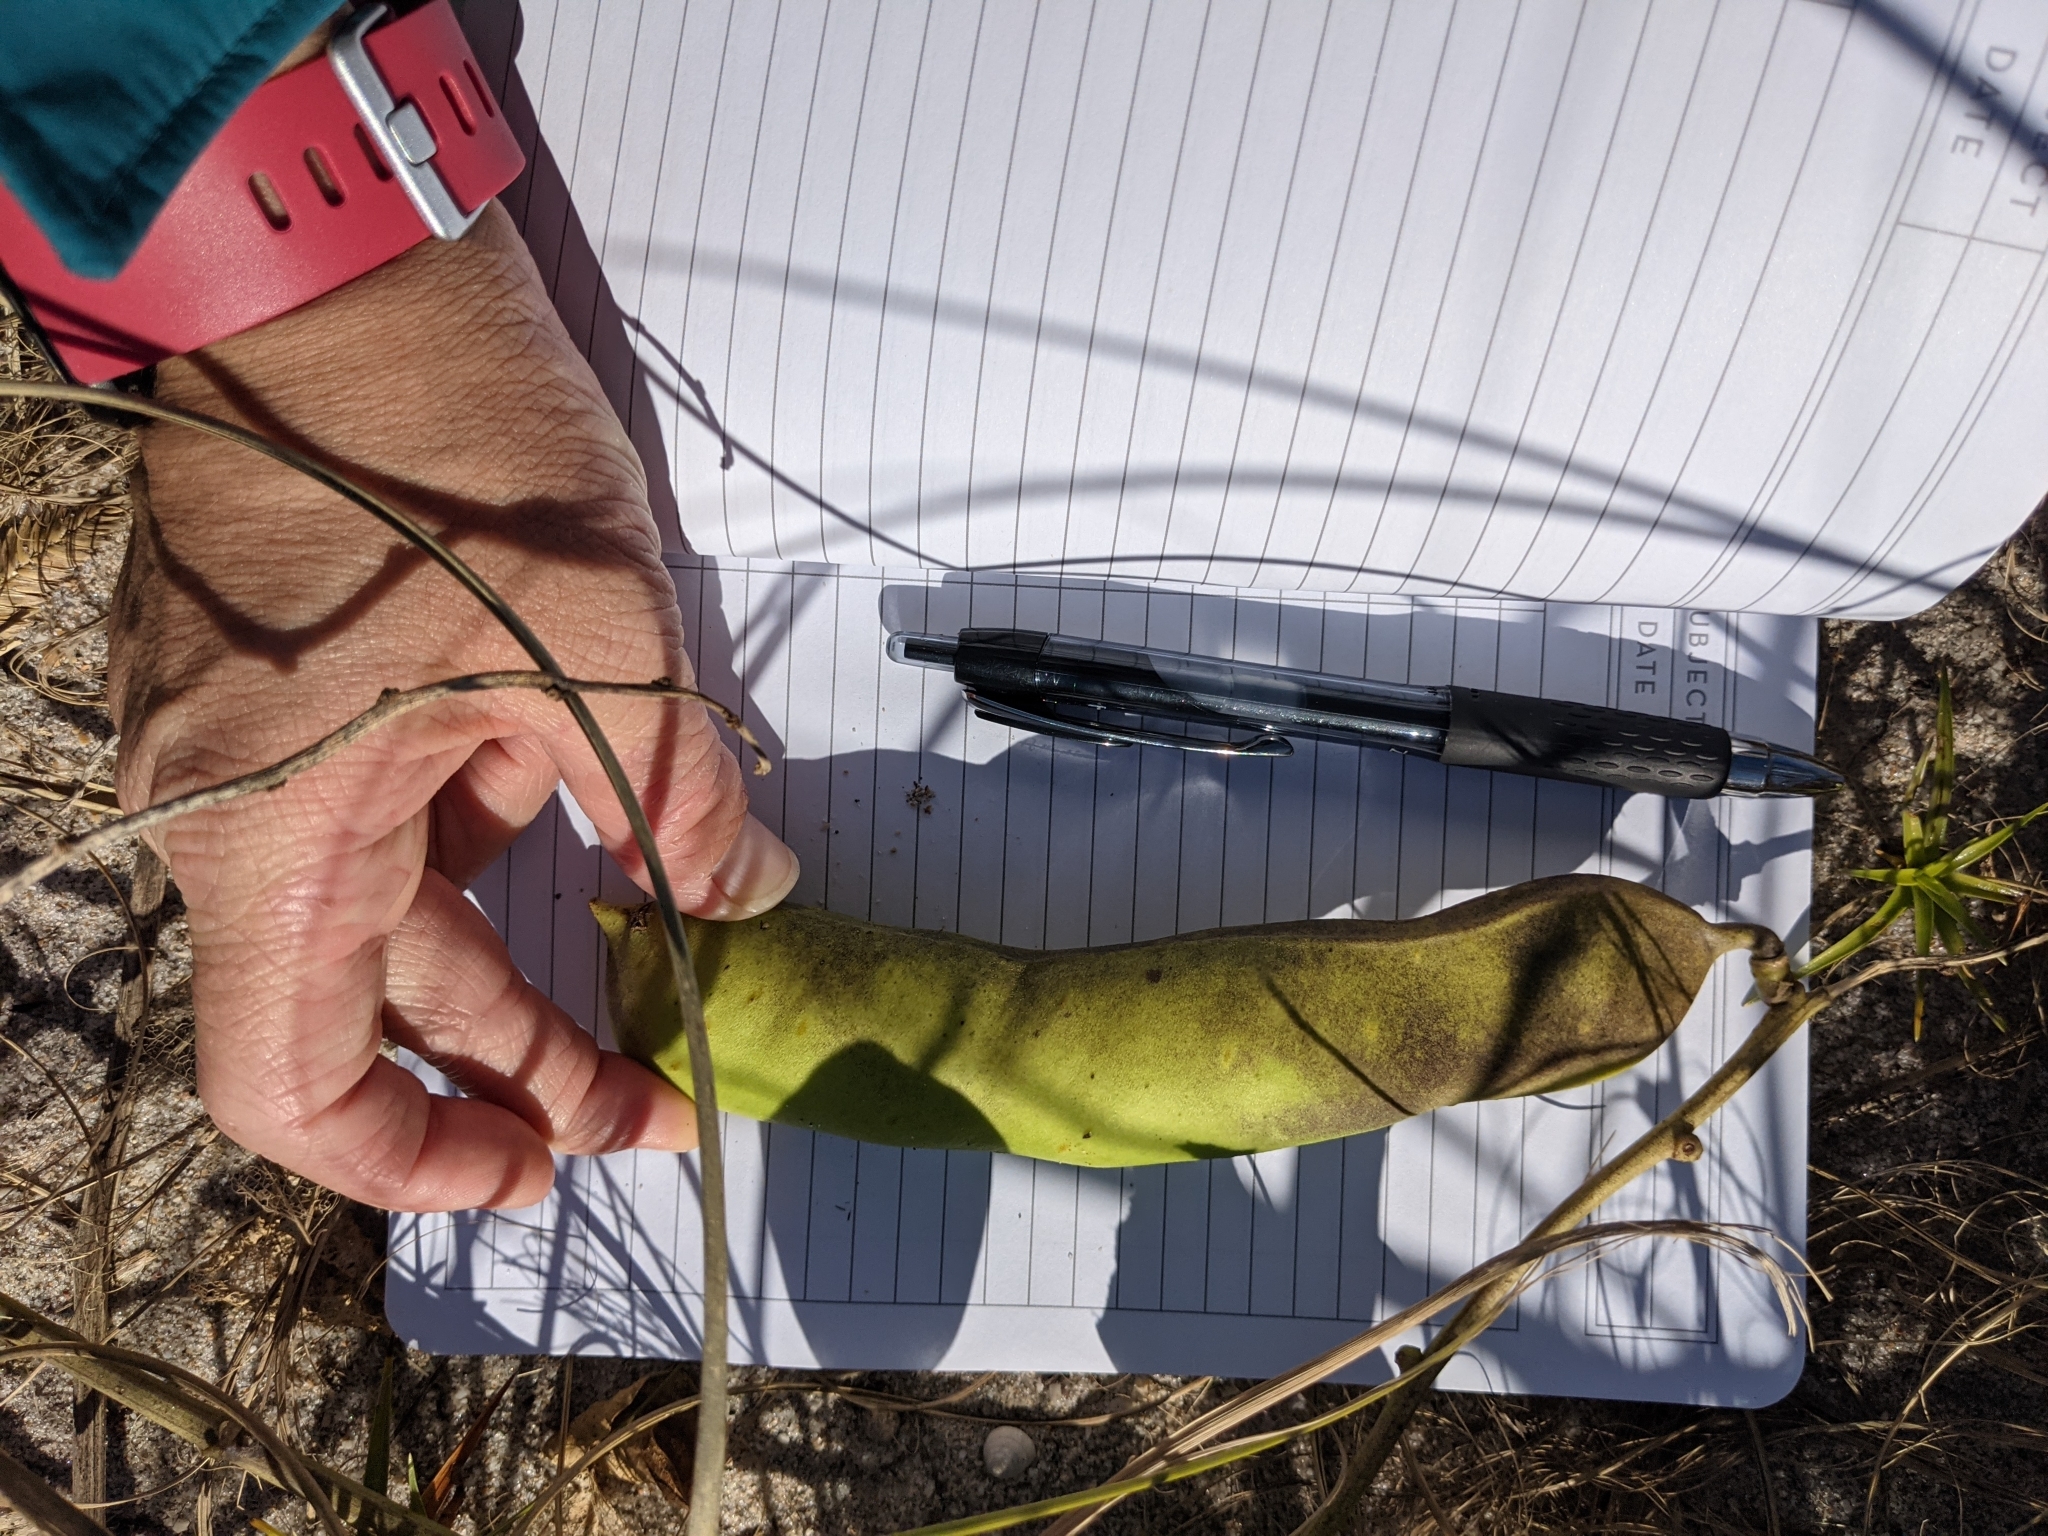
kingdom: Plantae
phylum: Tracheophyta
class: Magnoliopsida
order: Fabales
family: Fabaceae
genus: Canavalia
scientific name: Canavalia rosea
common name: Beach-bean
